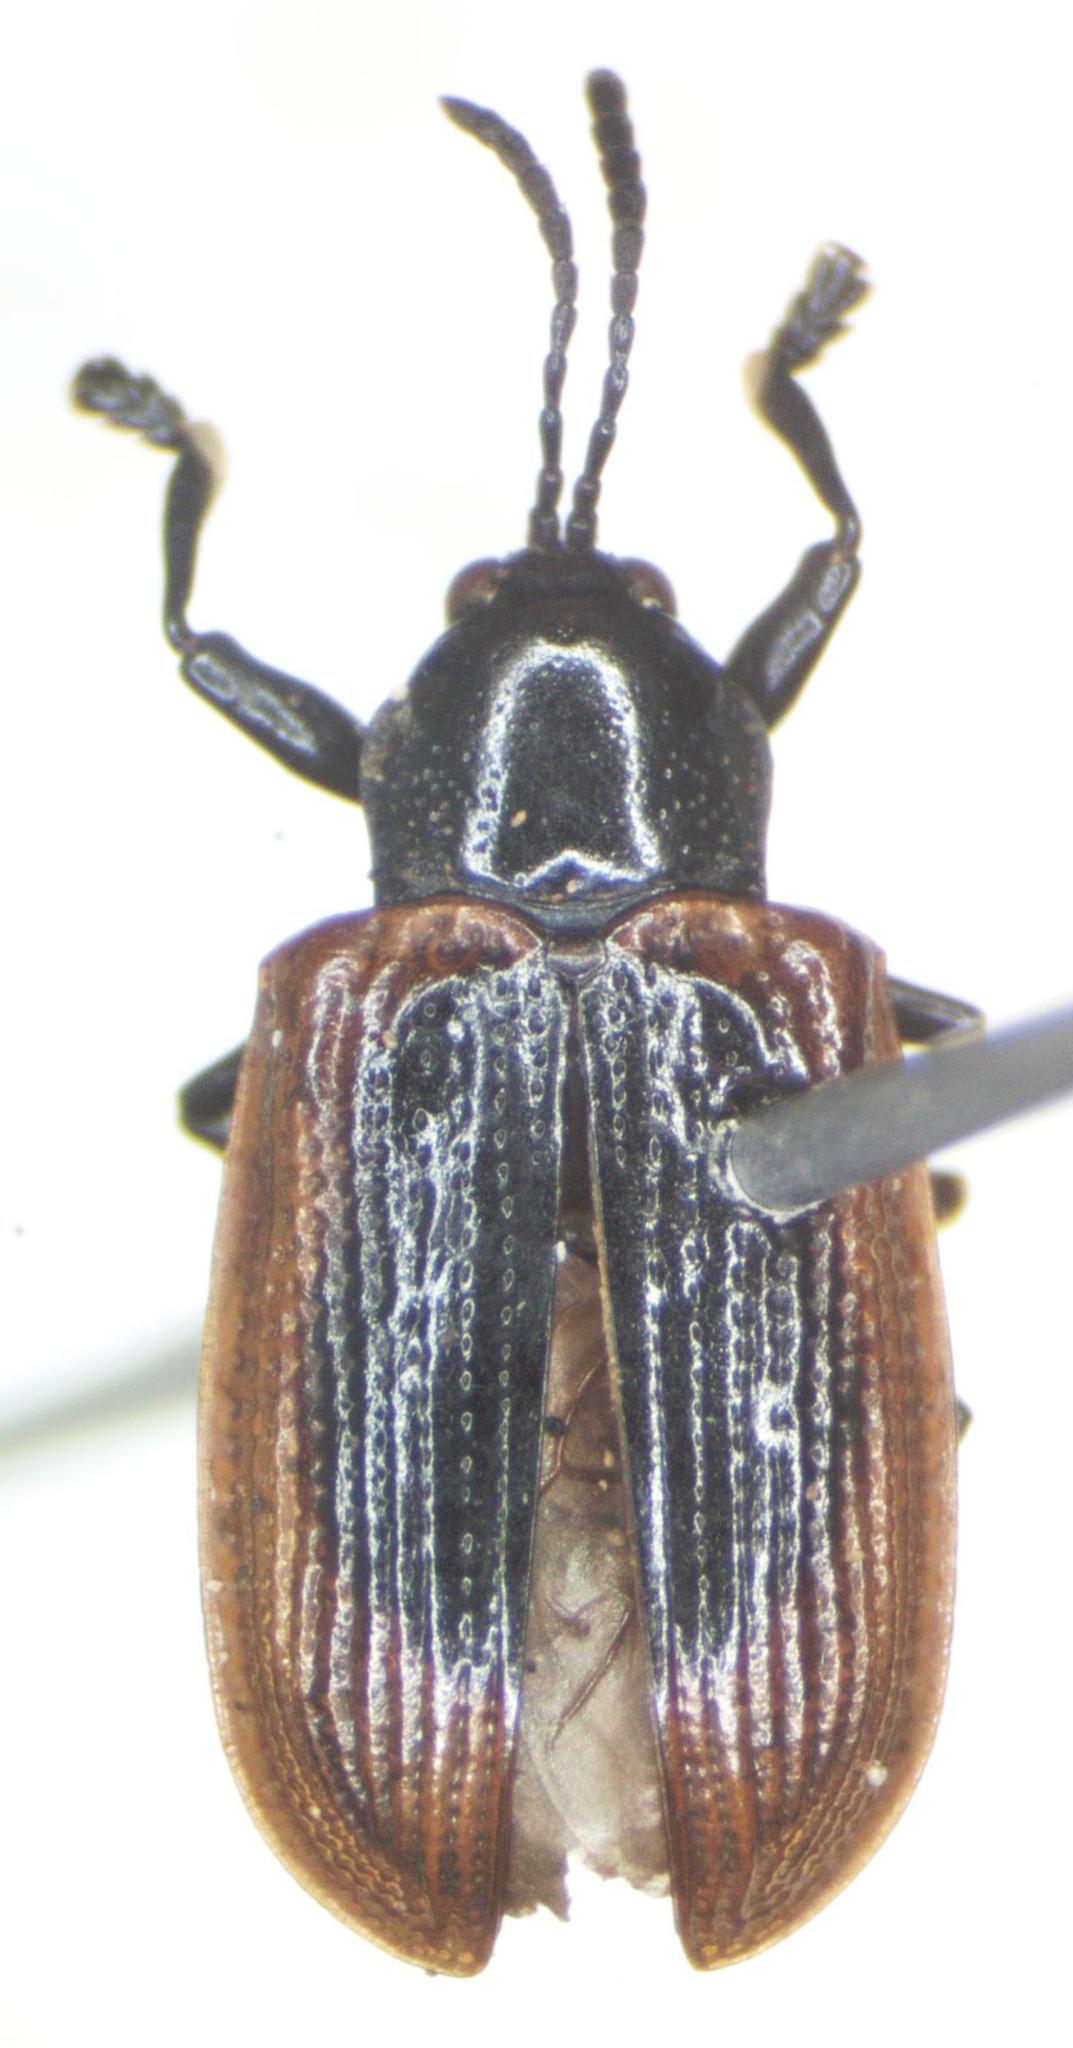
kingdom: Animalia
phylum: Arthropoda
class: Insecta
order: Coleoptera
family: Chrysomelidae
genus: Prosopodonta
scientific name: Prosopodonta dorsata
